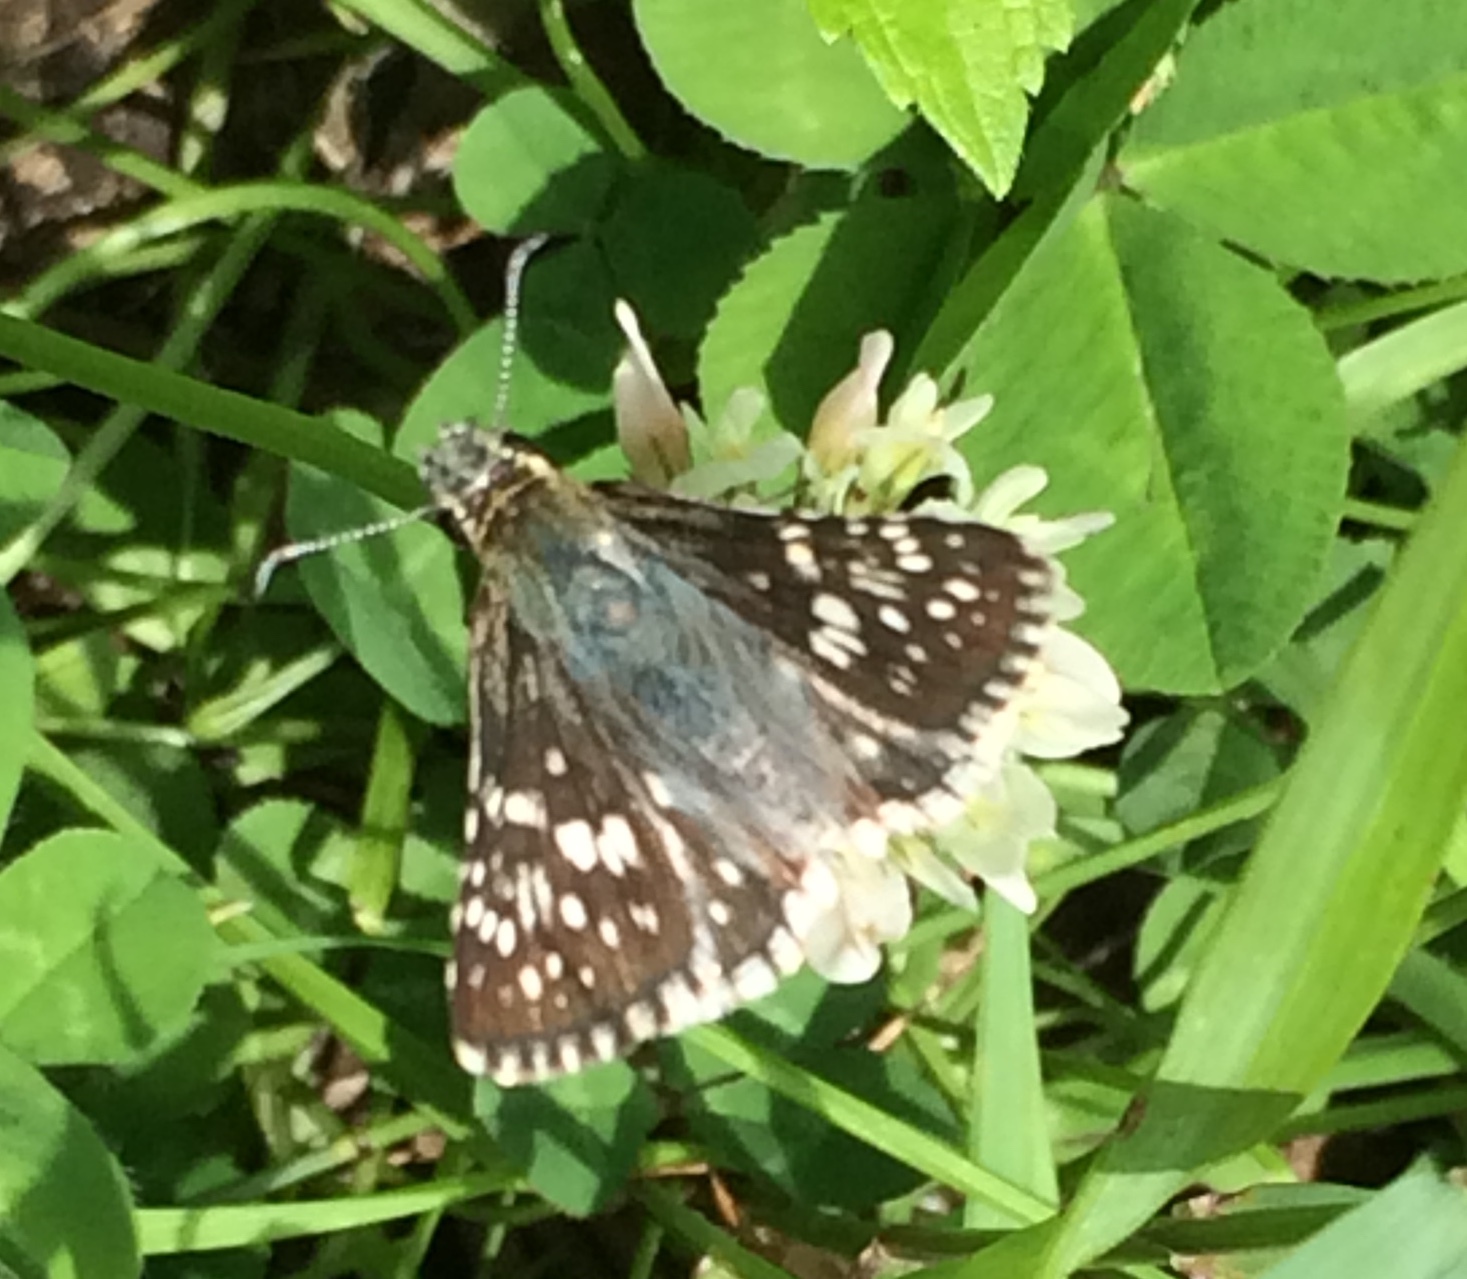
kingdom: Animalia
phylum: Arthropoda
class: Insecta
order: Lepidoptera
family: Hesperiidae
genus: Burnsius
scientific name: Burnsius communis
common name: Common checkered-skipper
